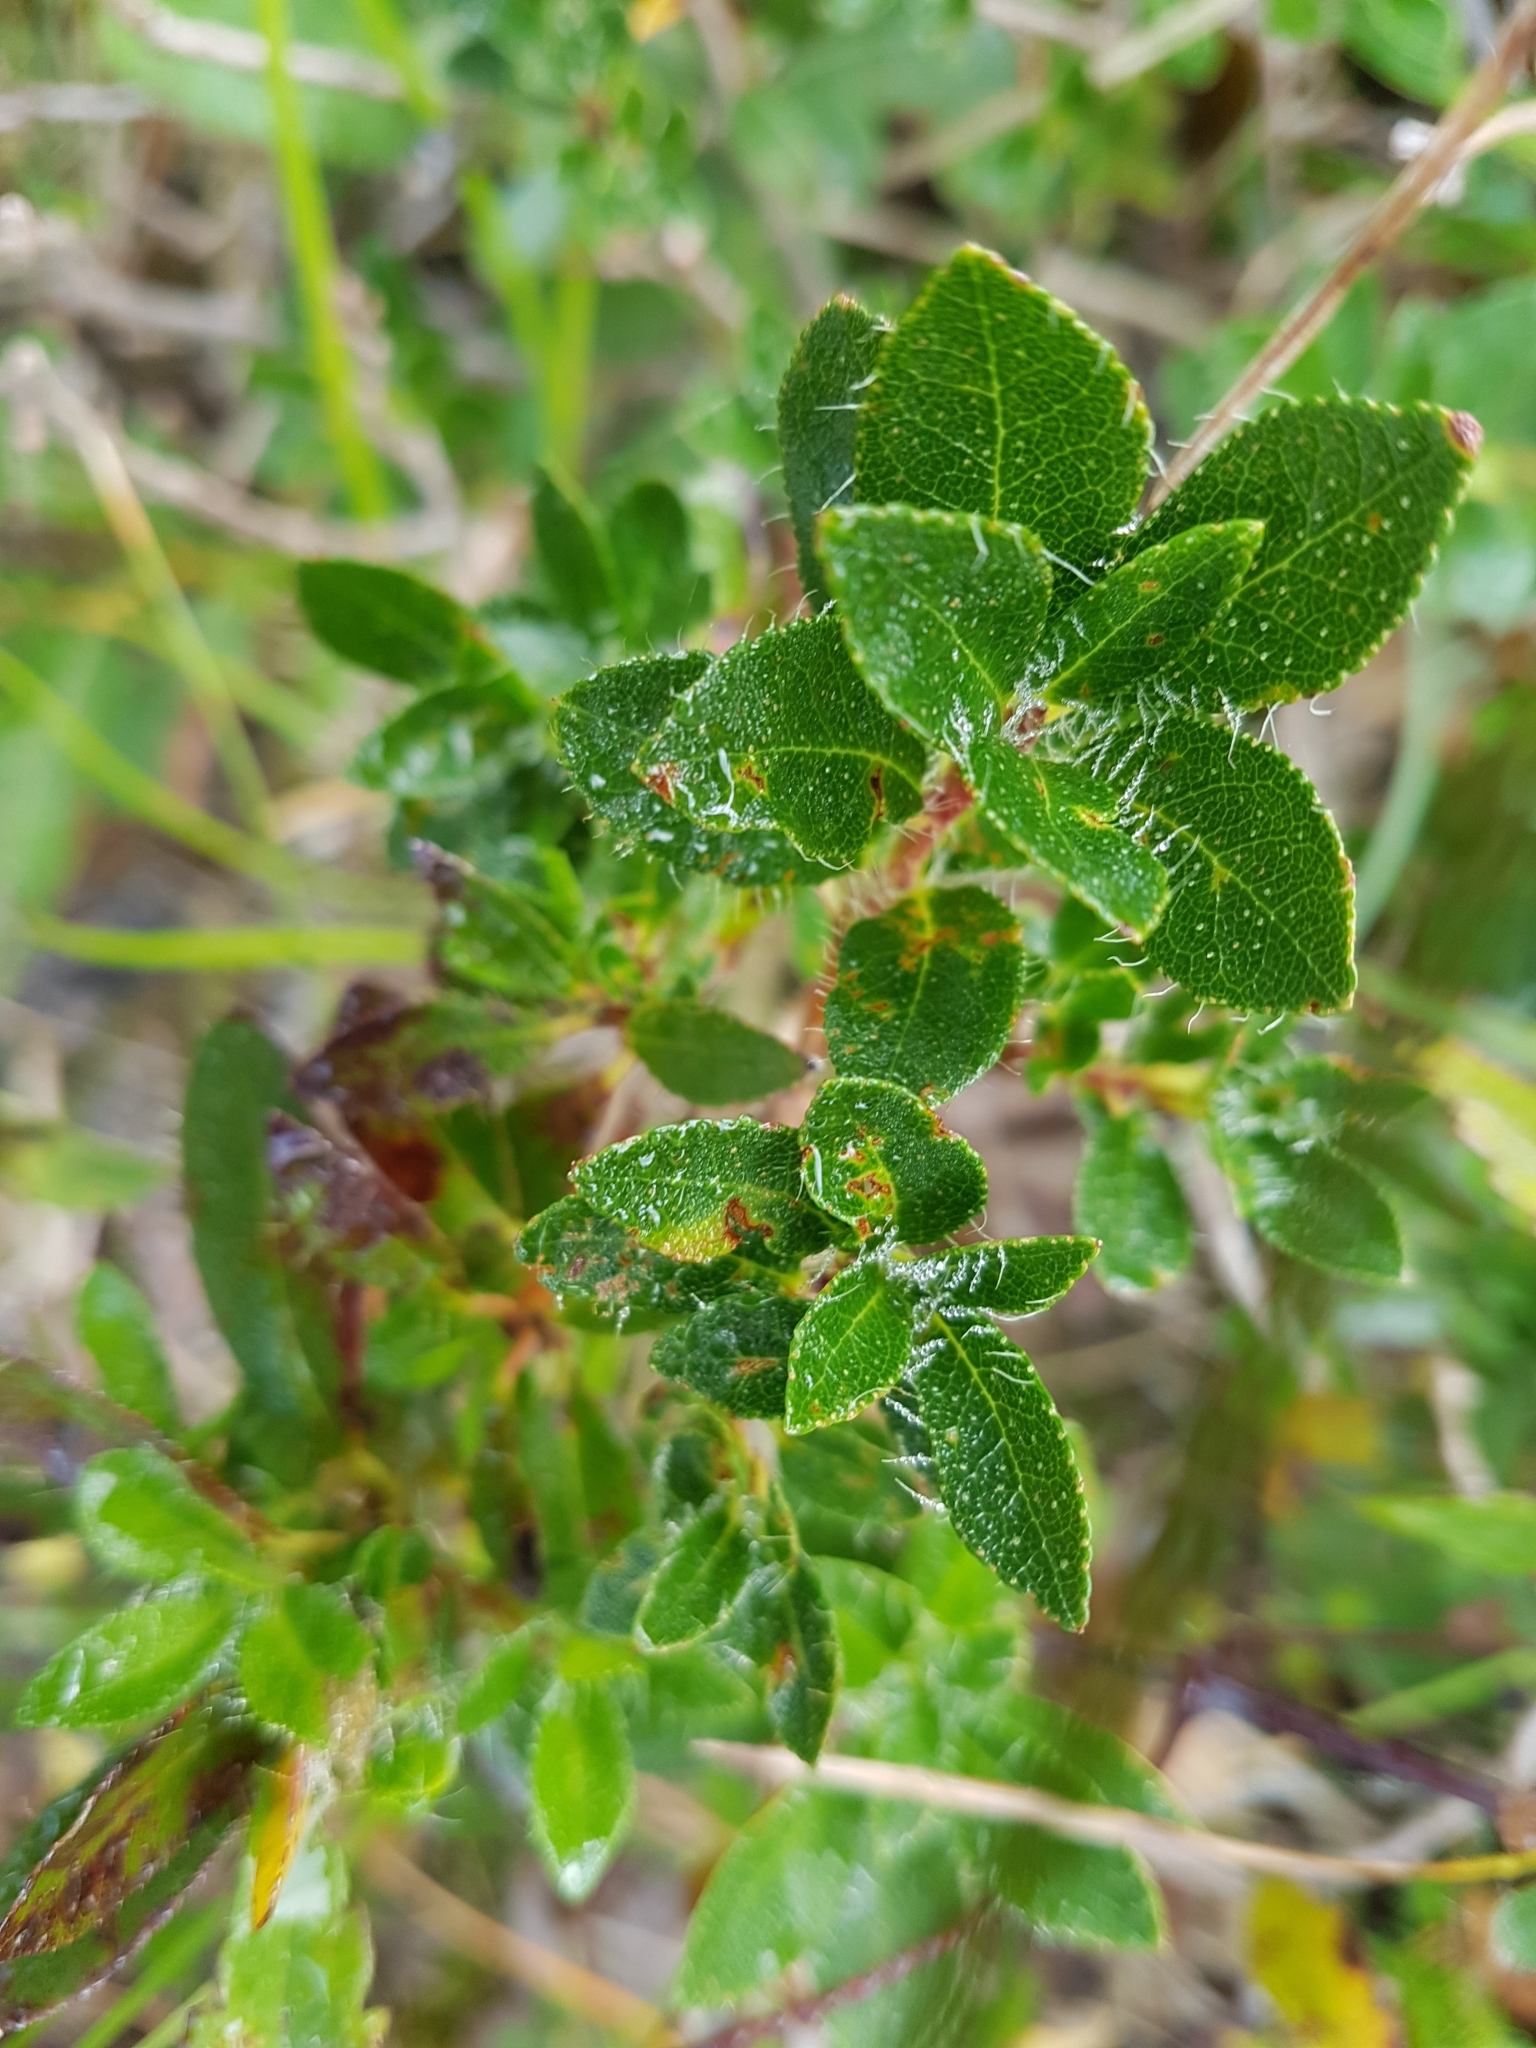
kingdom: Plantae
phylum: Tracheophyta
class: Magnoliopsida
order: Ericales
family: Ericaceae
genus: Rhododendron
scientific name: Rhododendron hirsutum
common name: Hairy alpenrose
